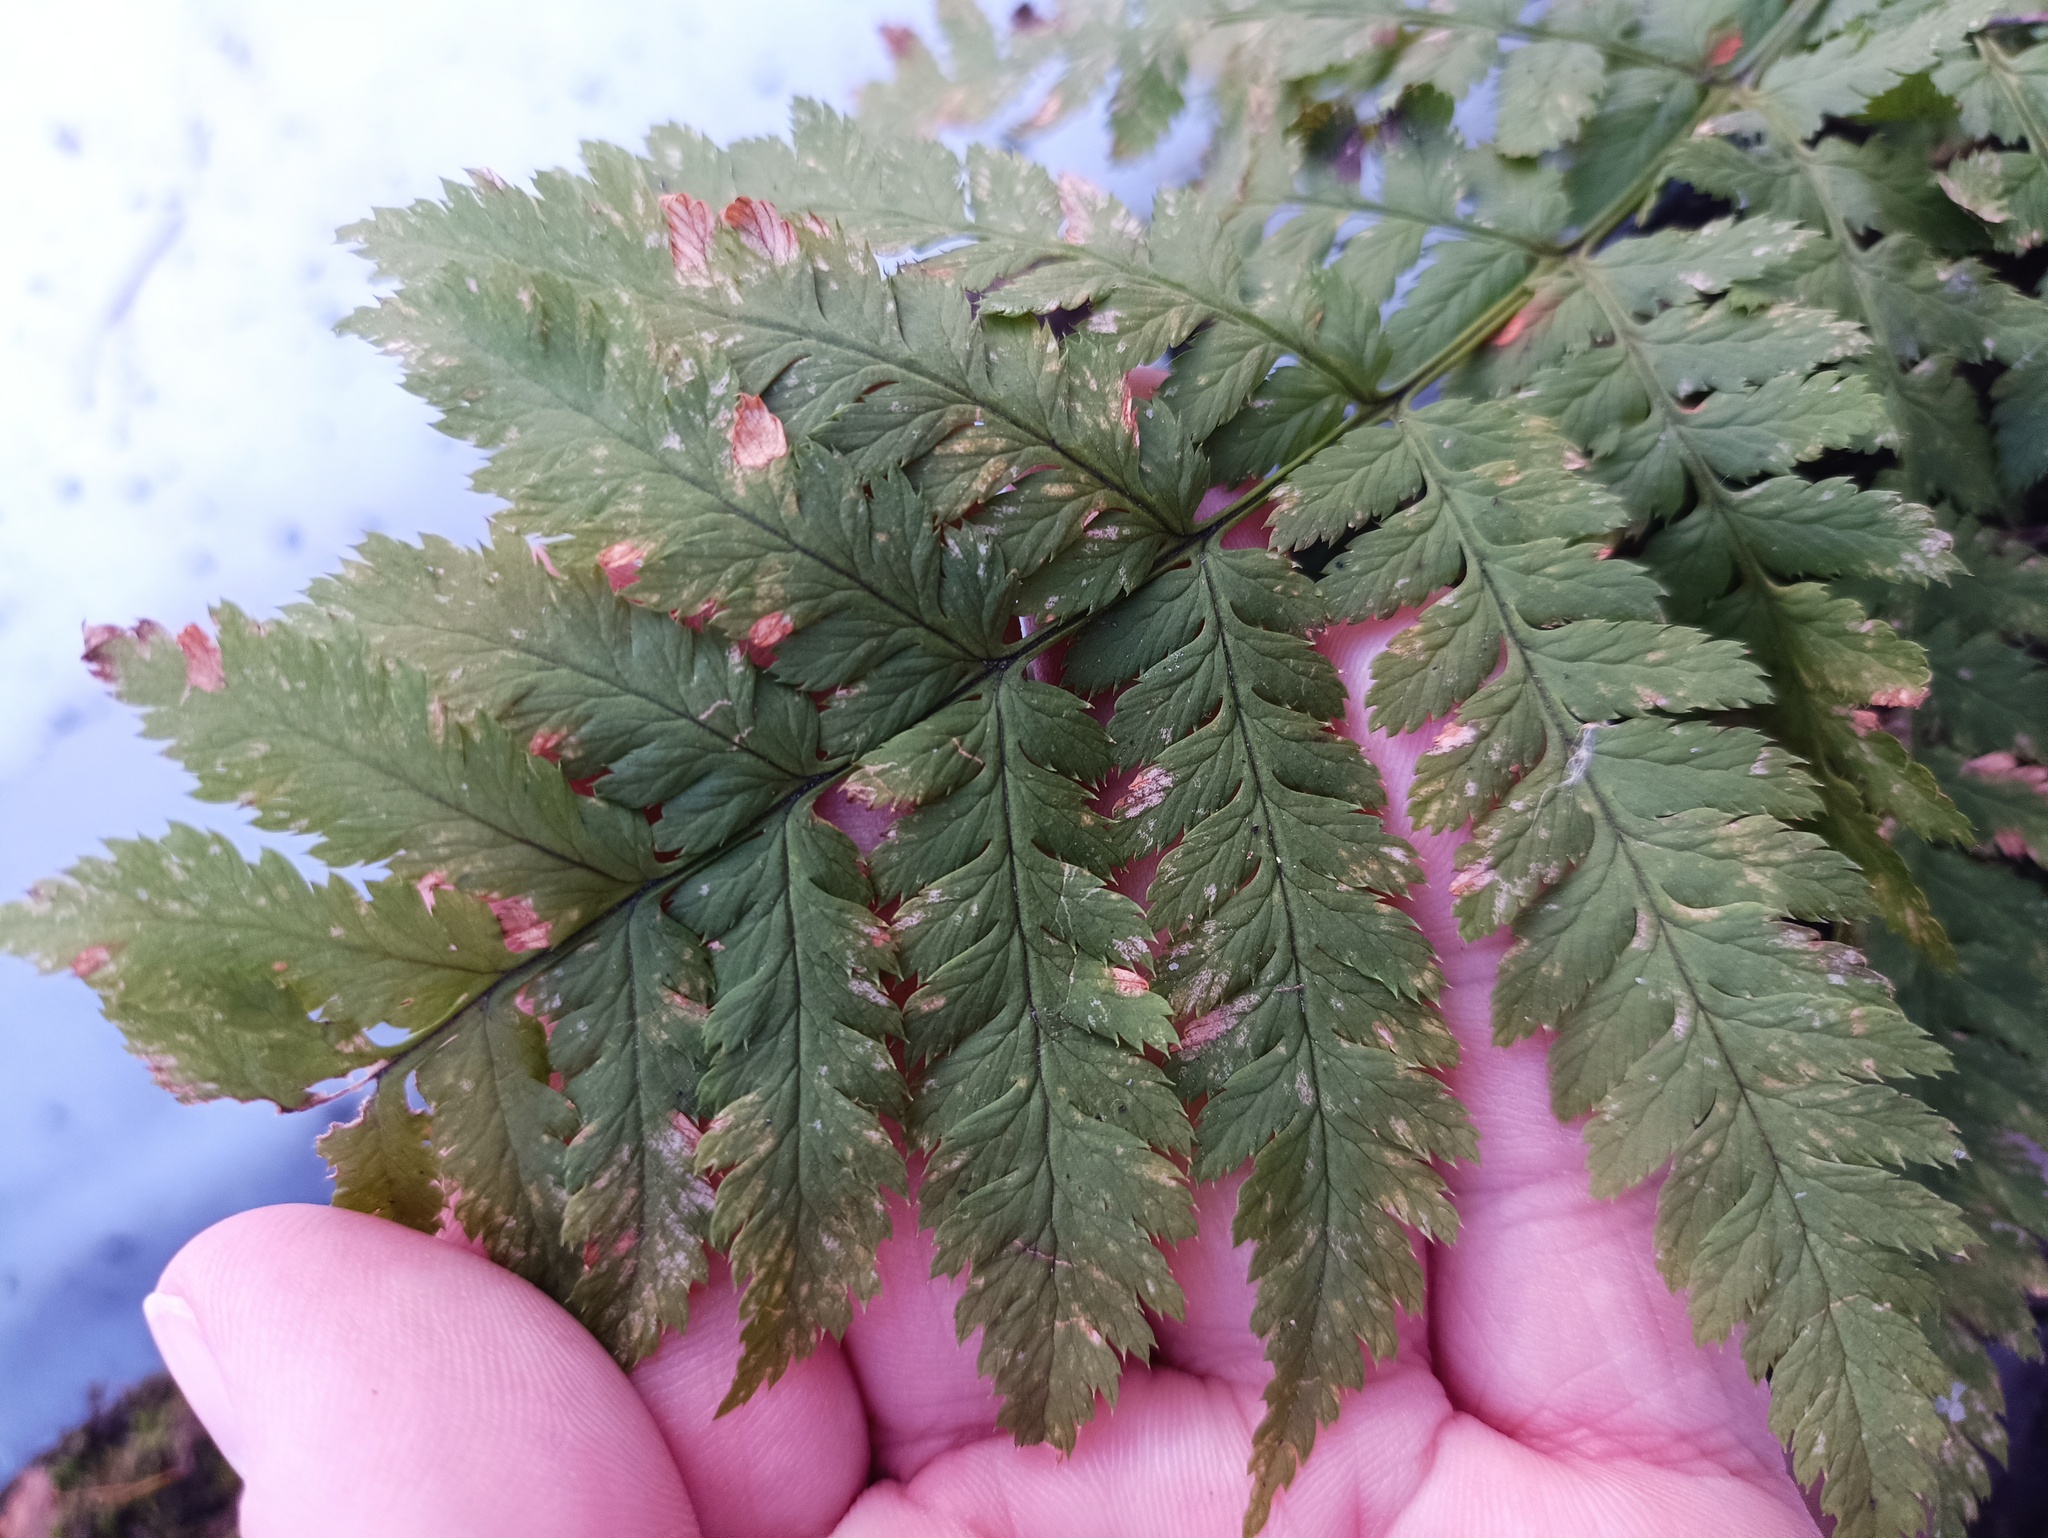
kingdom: Plantae
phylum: Tracheophyta
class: Polypodiopsida
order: Polypodiales
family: Dryopteridaceae
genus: Dryopteris
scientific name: Dryopteris carthusiana
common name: Narrow buckler-fern
